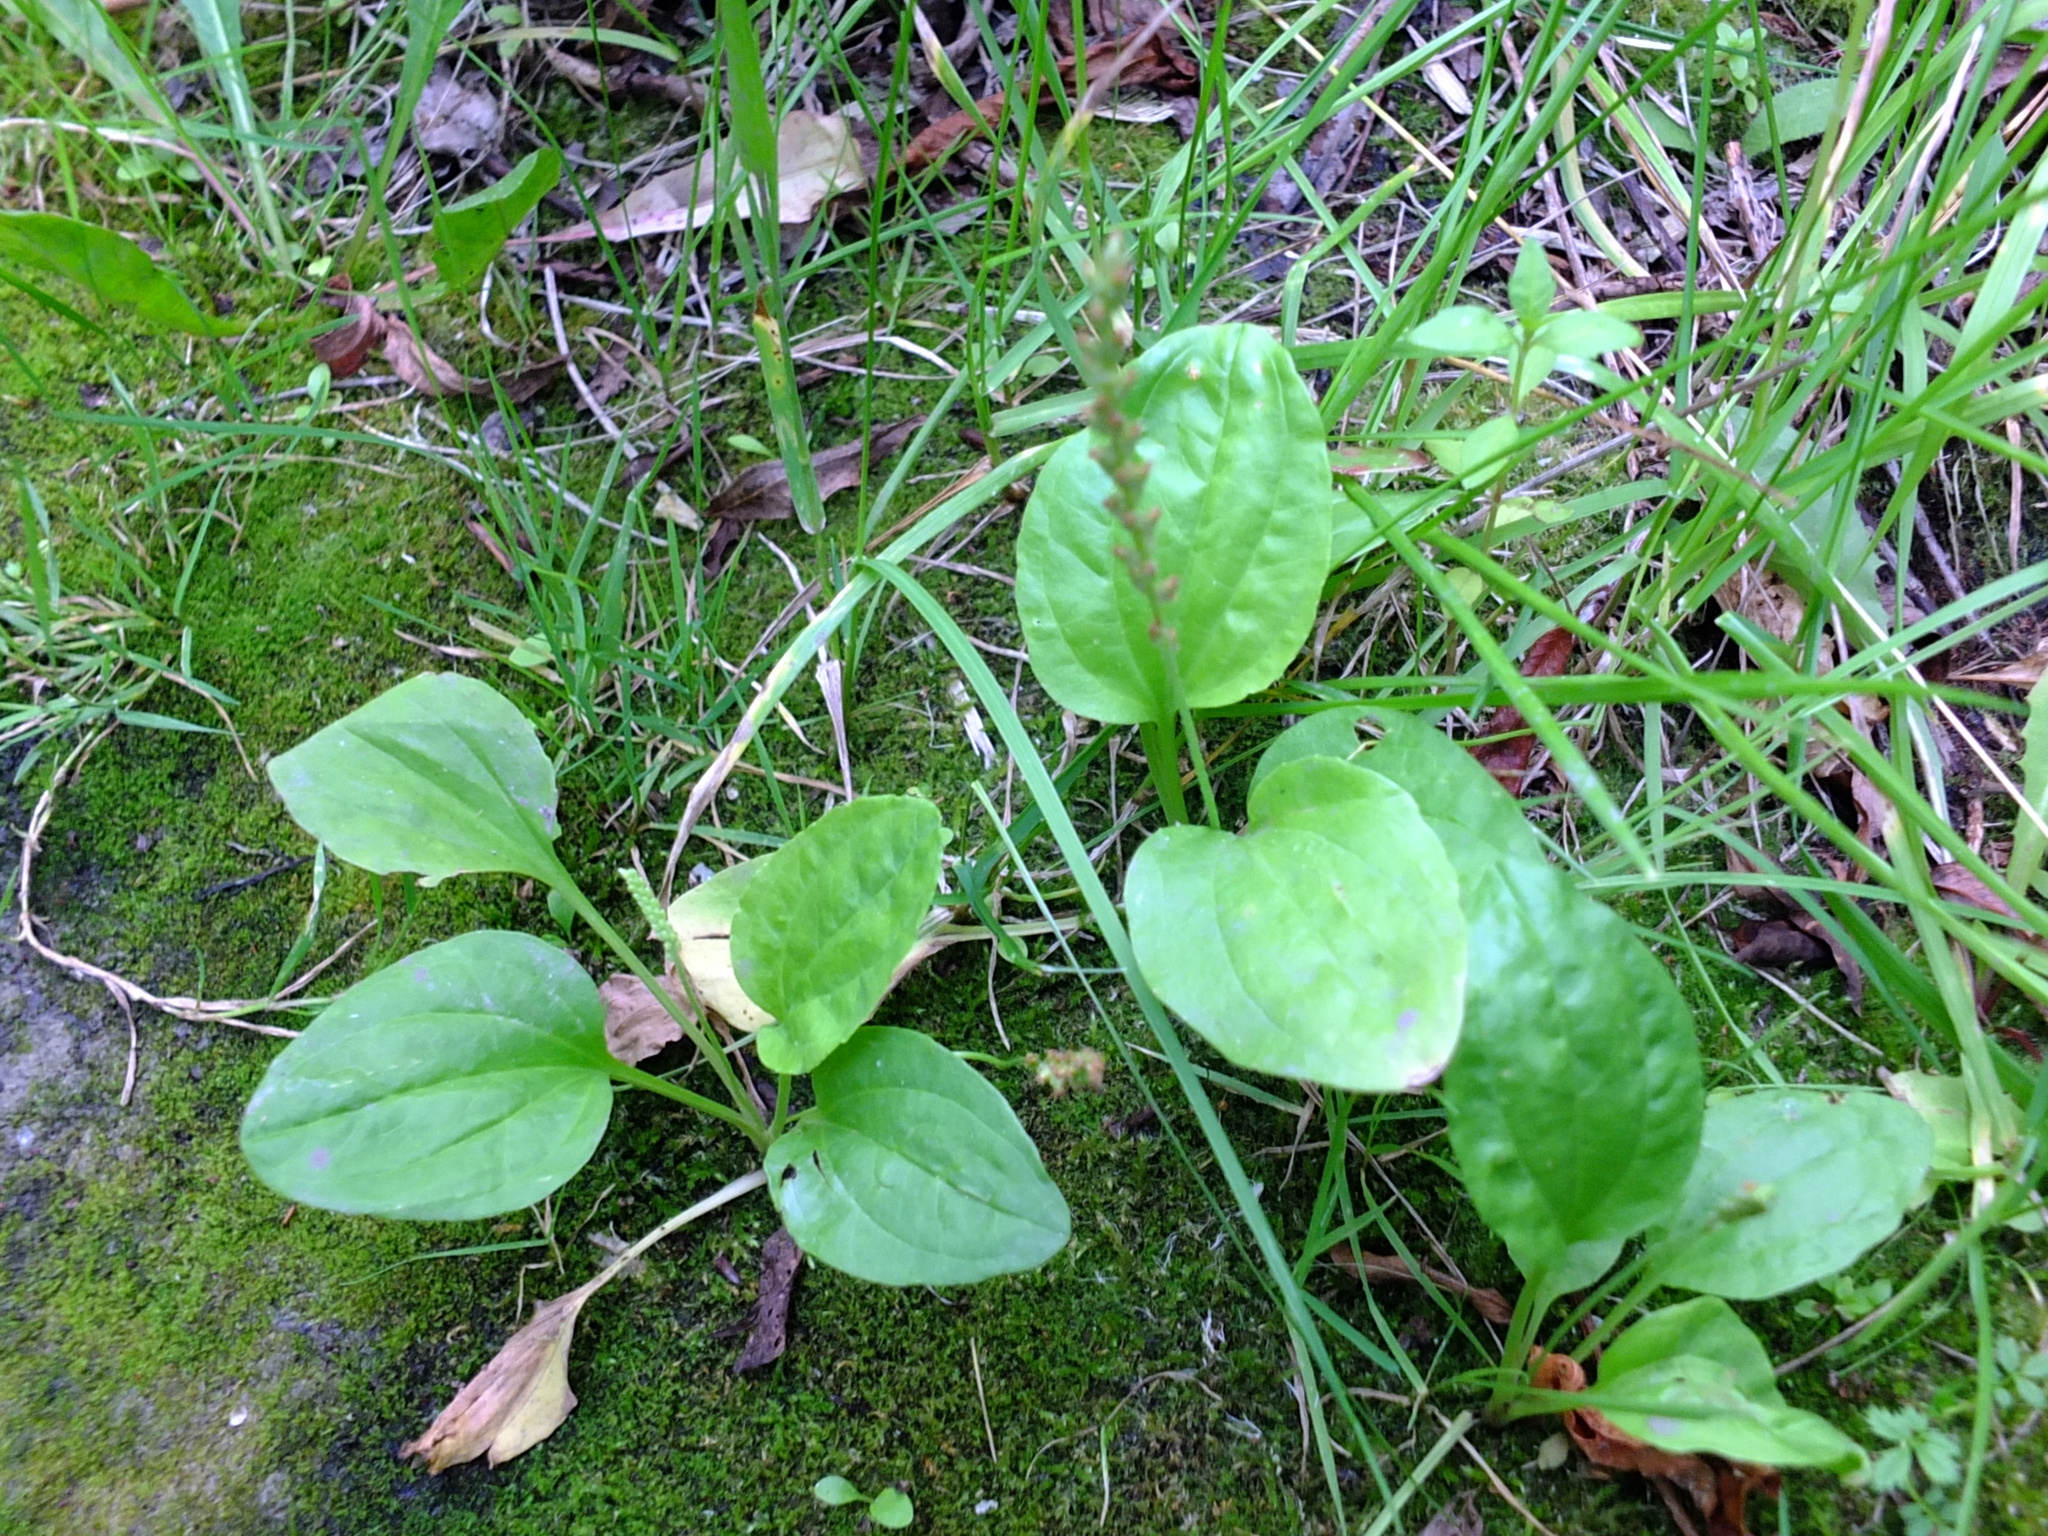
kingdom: Plantae
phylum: Tracheophyta
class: Magnoliopsida
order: Lamiales
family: Plantaginaceae
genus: Plantago
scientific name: Plantago major
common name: Common plantain
